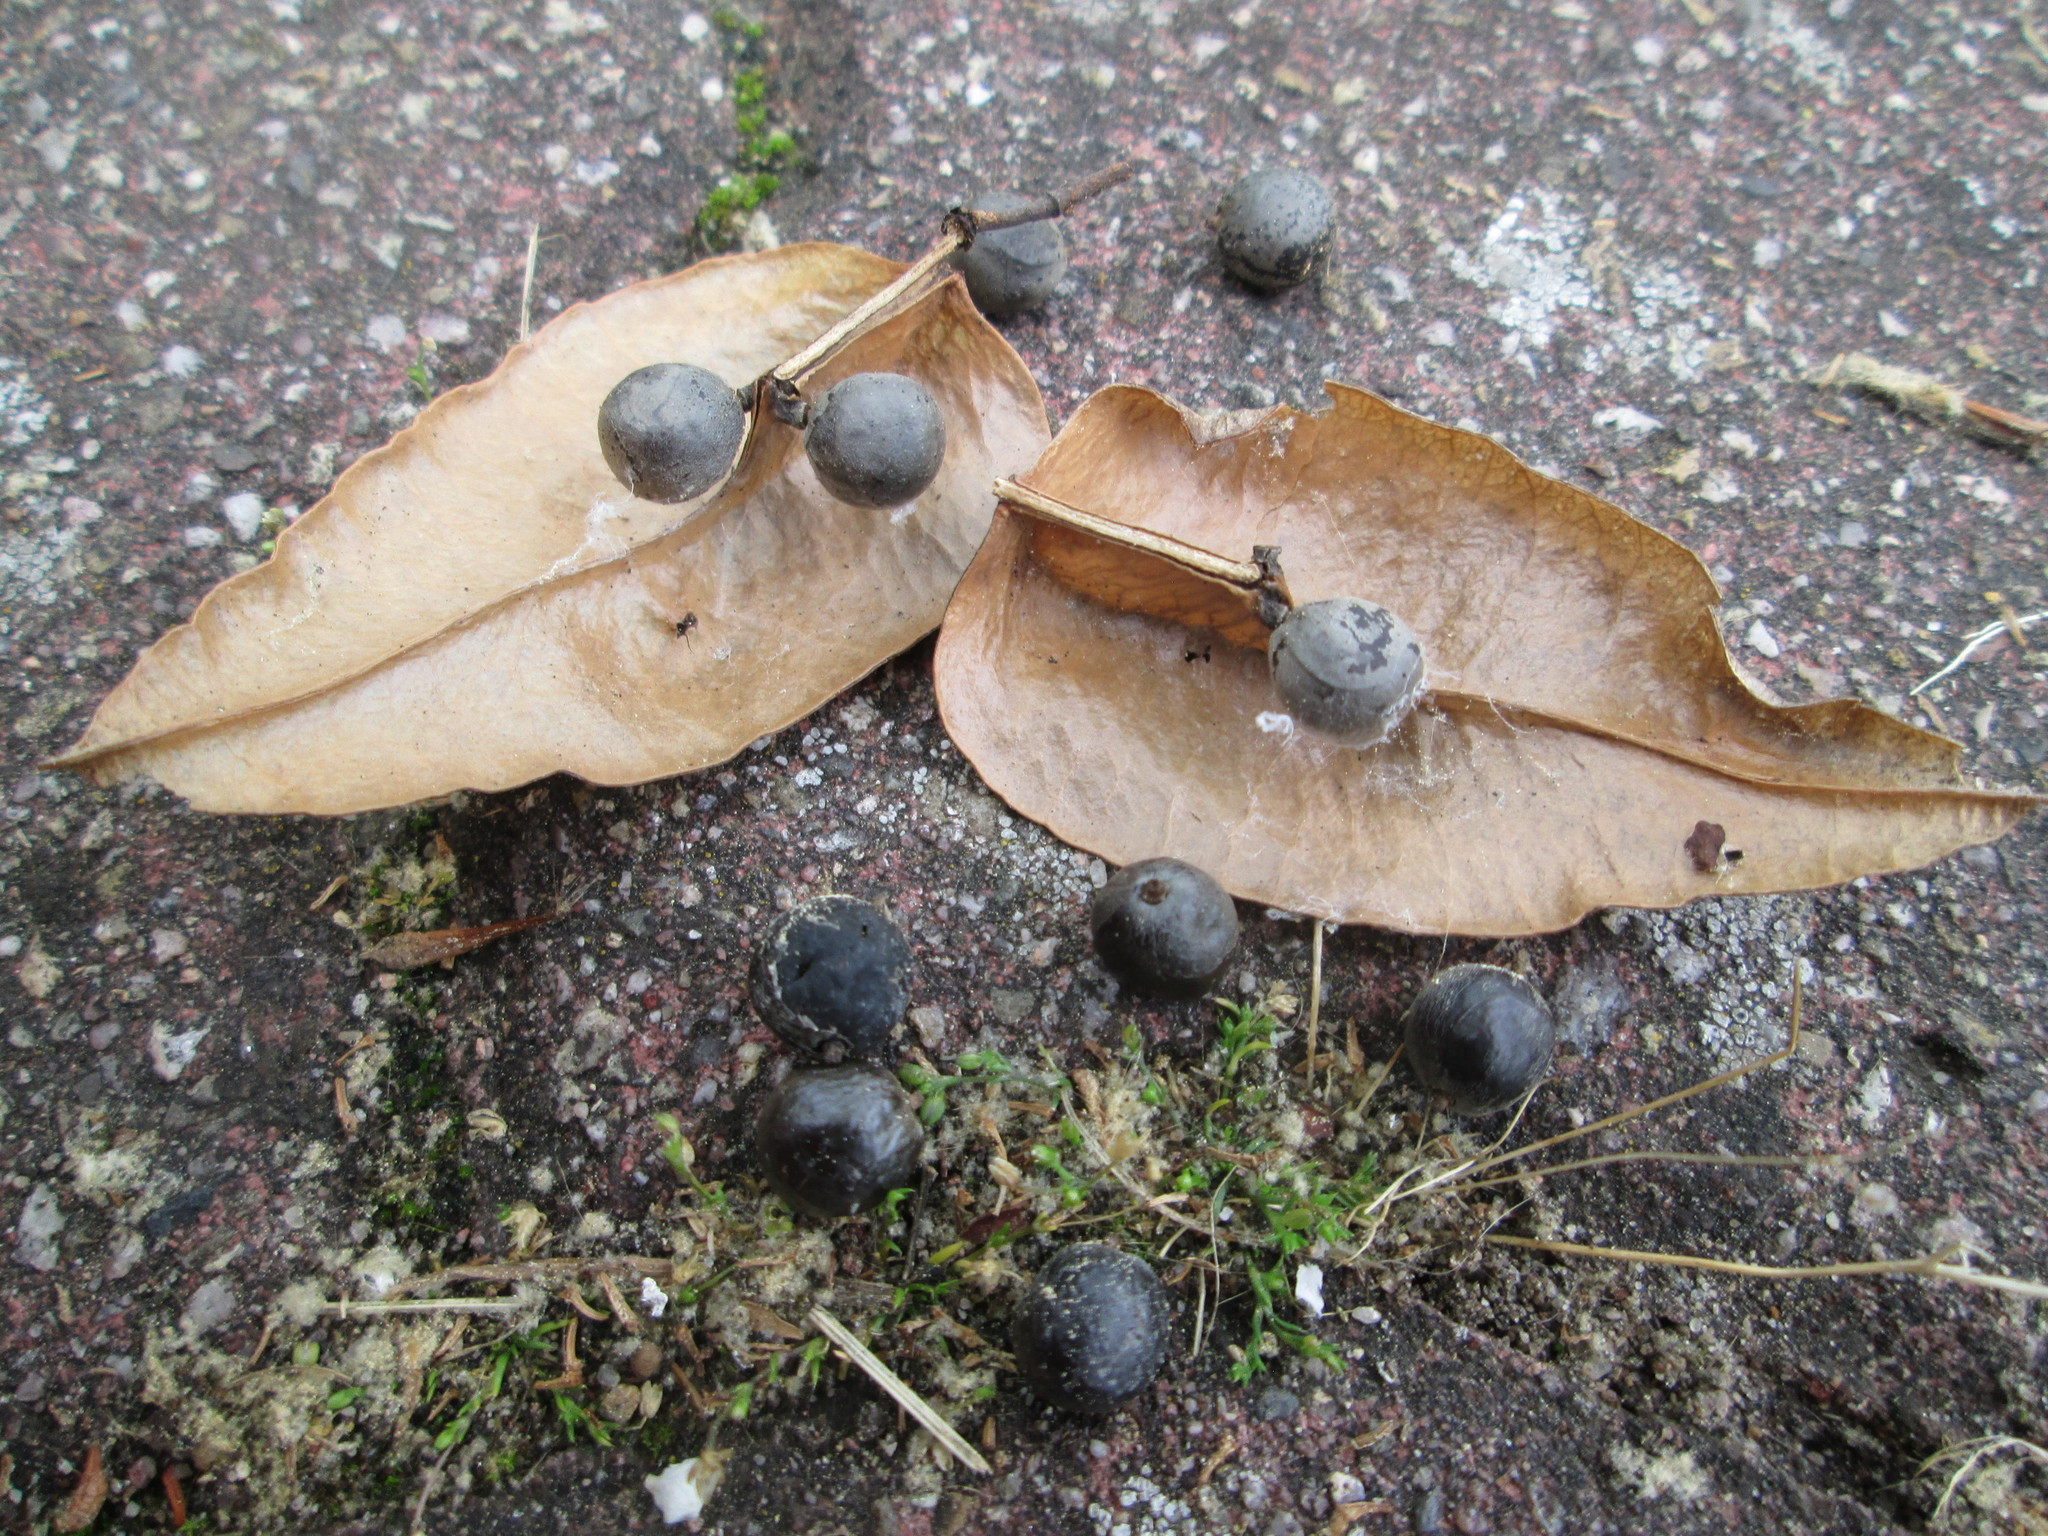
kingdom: Plantae
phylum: Tracheophyta
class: Magnoliopsida
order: Sapindales
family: Sapindaceae
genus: Koelreuteria
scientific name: Koelreuteria paniculata
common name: Pride-of-india
